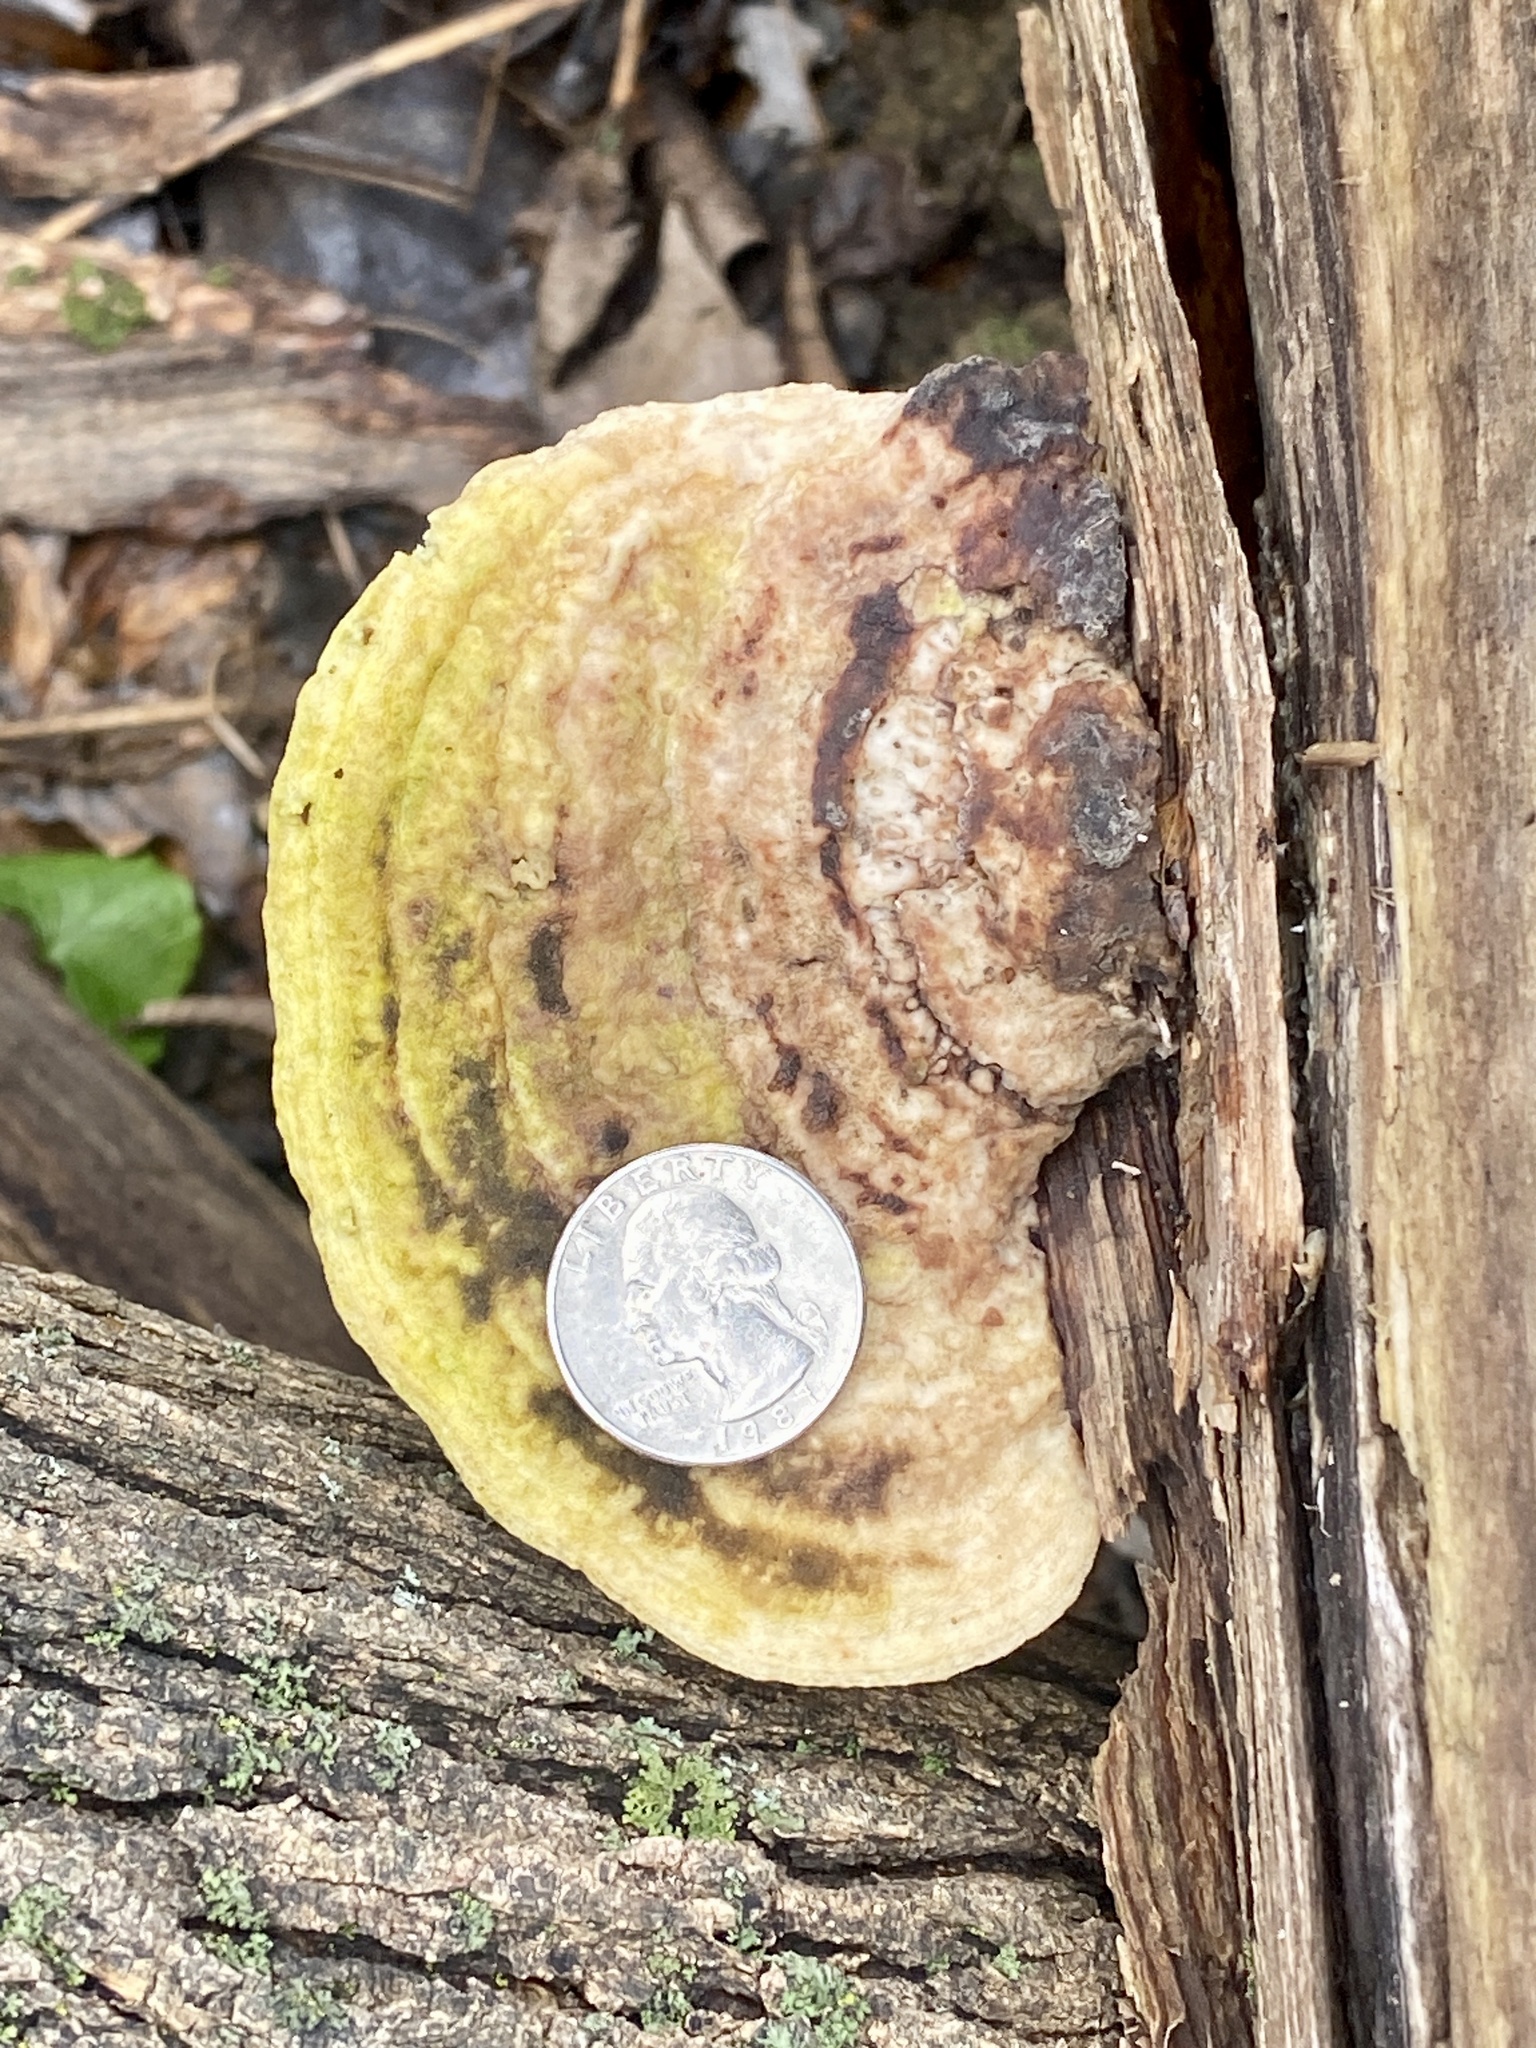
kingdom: Fungi
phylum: Basidiomycota
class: Agaricomycetes
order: Polyporales
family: Polyporaceae
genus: Trametes
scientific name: Trametes gibbosa
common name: Lumpy bracket
